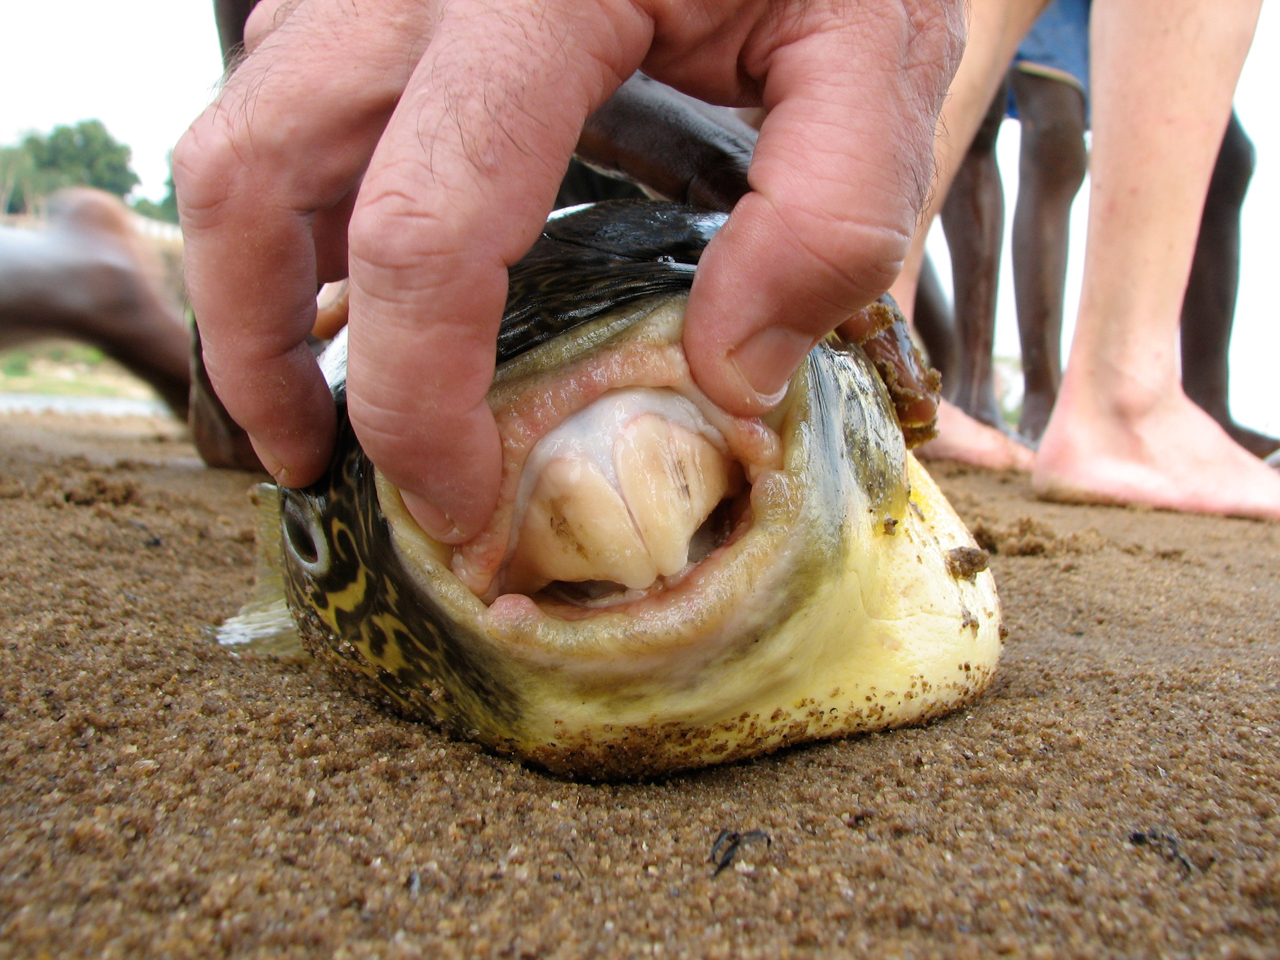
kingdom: Animalia
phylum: Chordata
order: Tetraodontiformes
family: Tetraodontidae
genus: Tetraodon
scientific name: Tetraodon mbu
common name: Fresh water puffer fish
